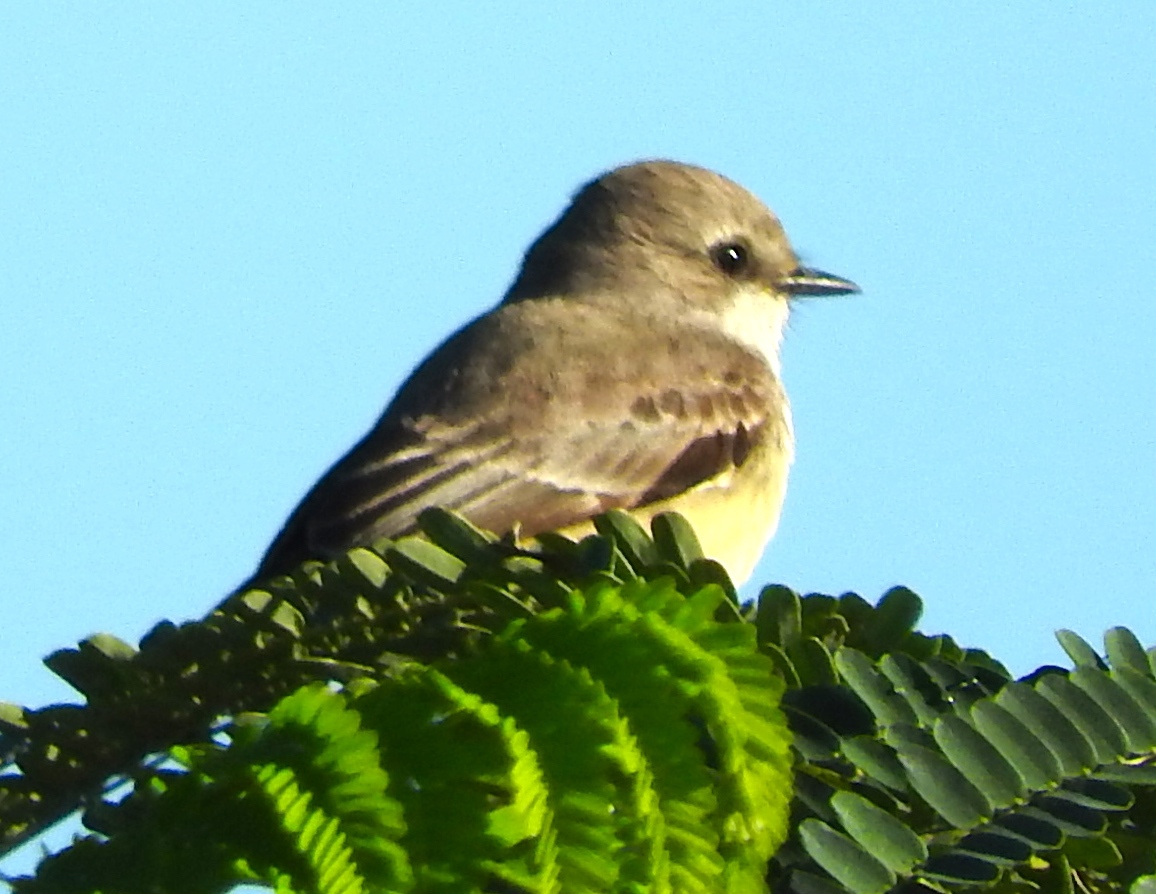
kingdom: Animalia
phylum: Chordata
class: Aves
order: Passeriformes
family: Tyrannidae
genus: Pyrocephalus
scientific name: Pyrocephalus rubinus
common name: Vermilion flycatcher
